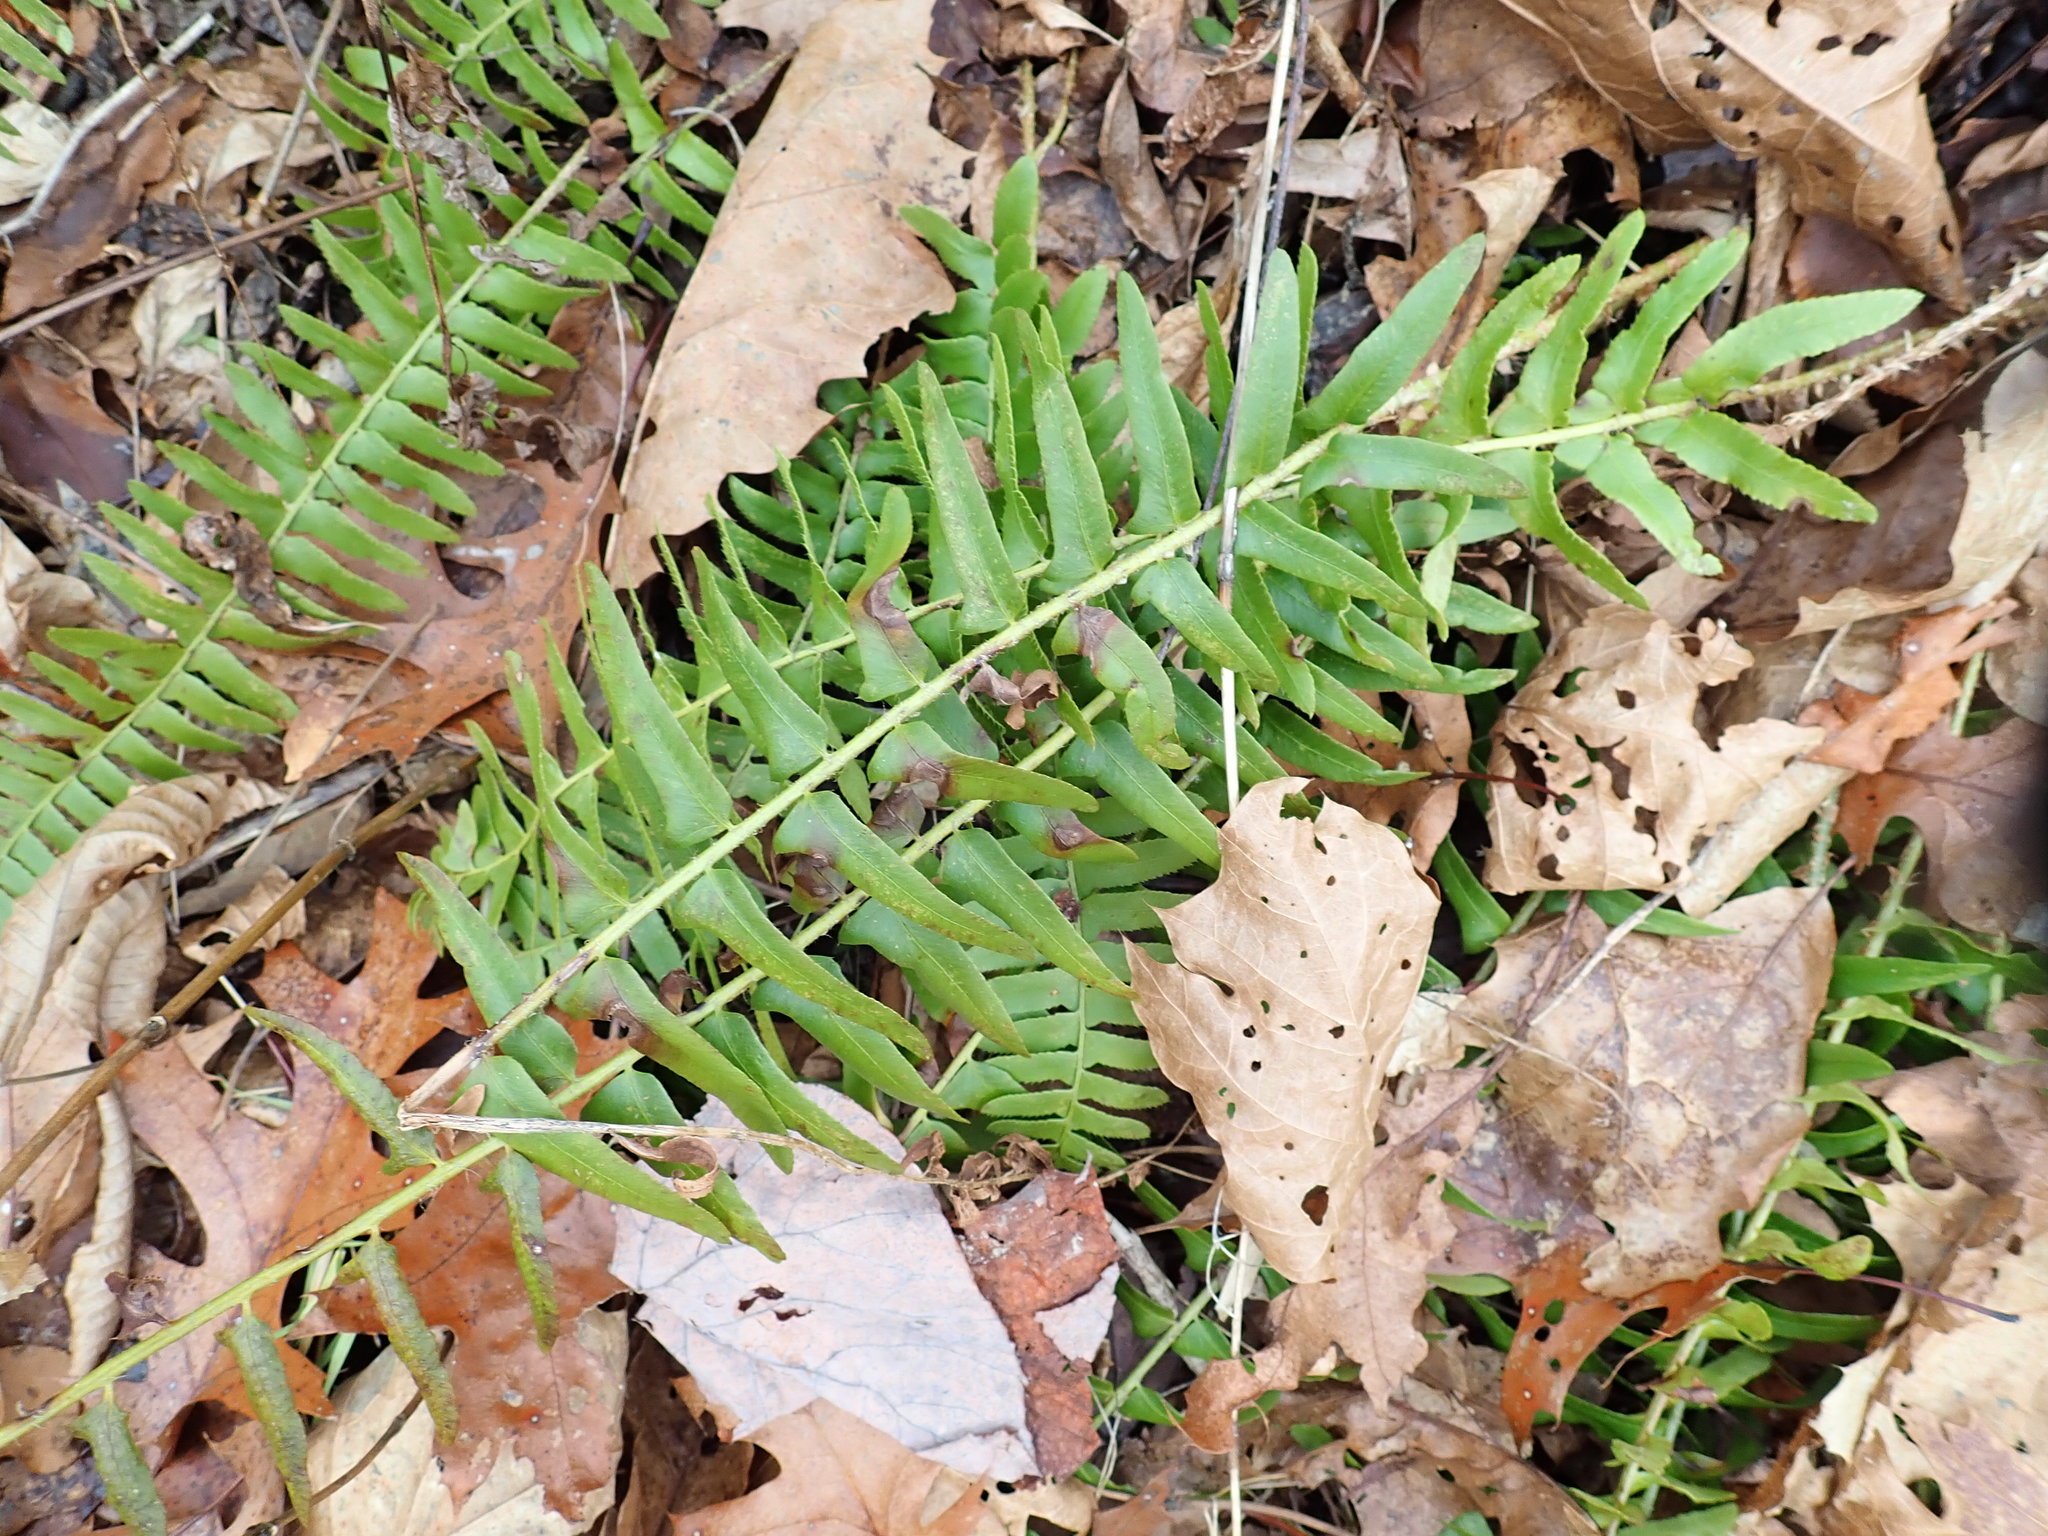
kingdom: Plantae
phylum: Tracheophyta
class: Polypodiopsida
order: Polypodiales
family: Dryopteridaceae
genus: Polystichum
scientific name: Polystichum acrostichoides
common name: Christmas fern
